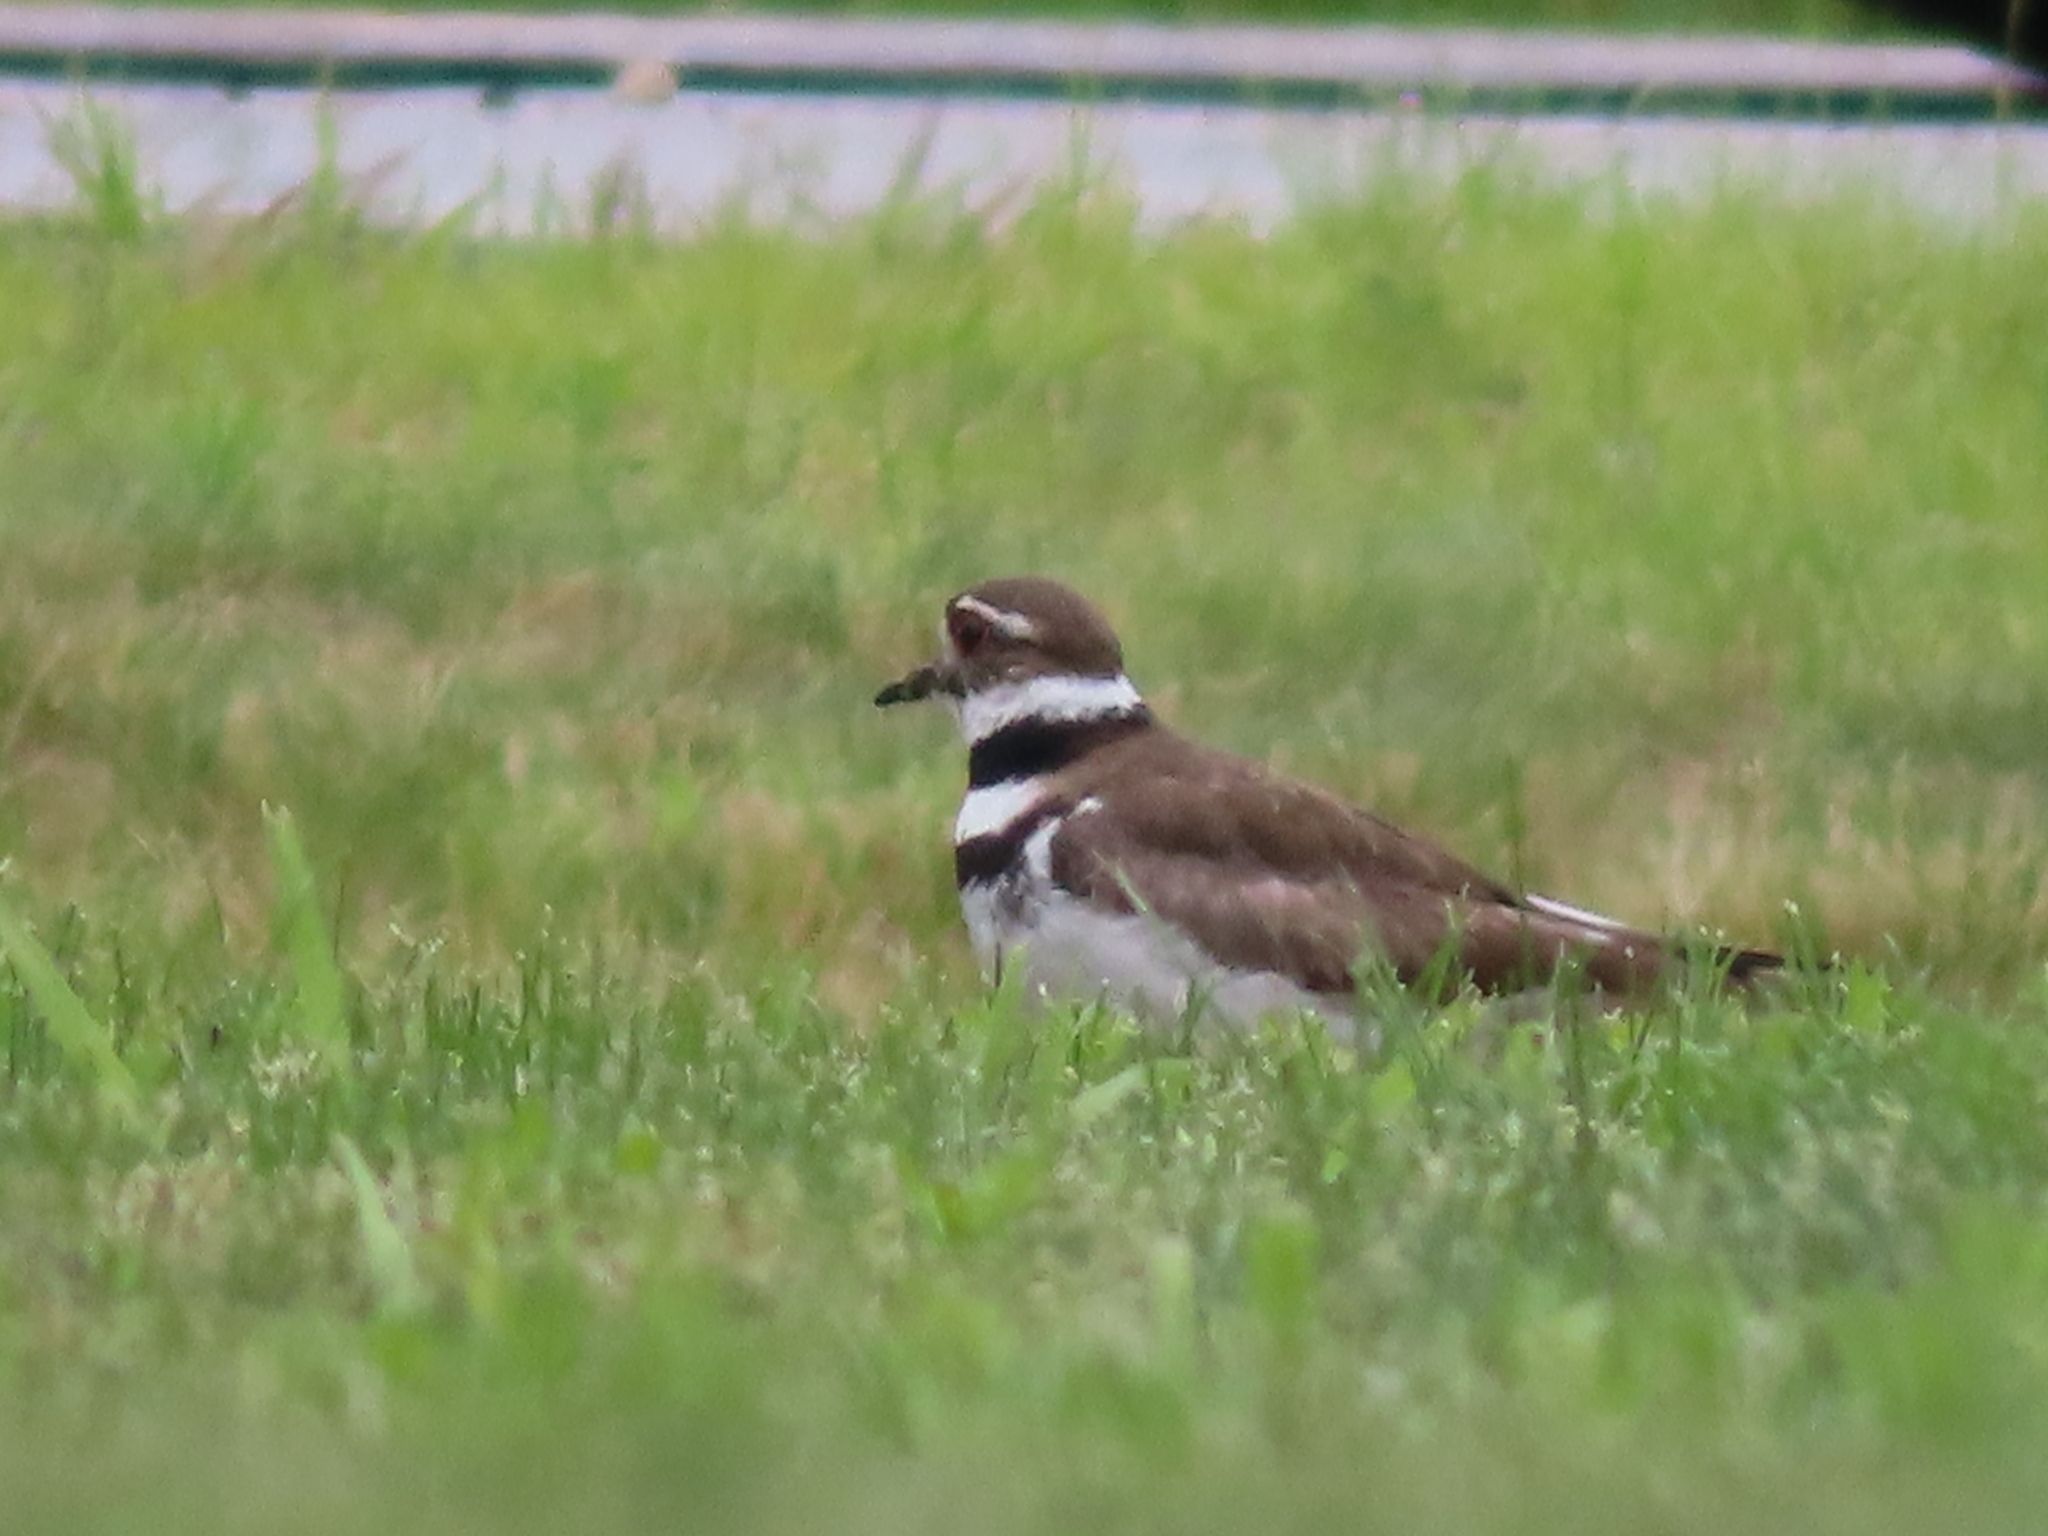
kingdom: Animalia
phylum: Chordata
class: Aves
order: Charadriiformes
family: Charadriidae
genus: Charadrius
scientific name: Charadrius vociferus
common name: Killdeer
